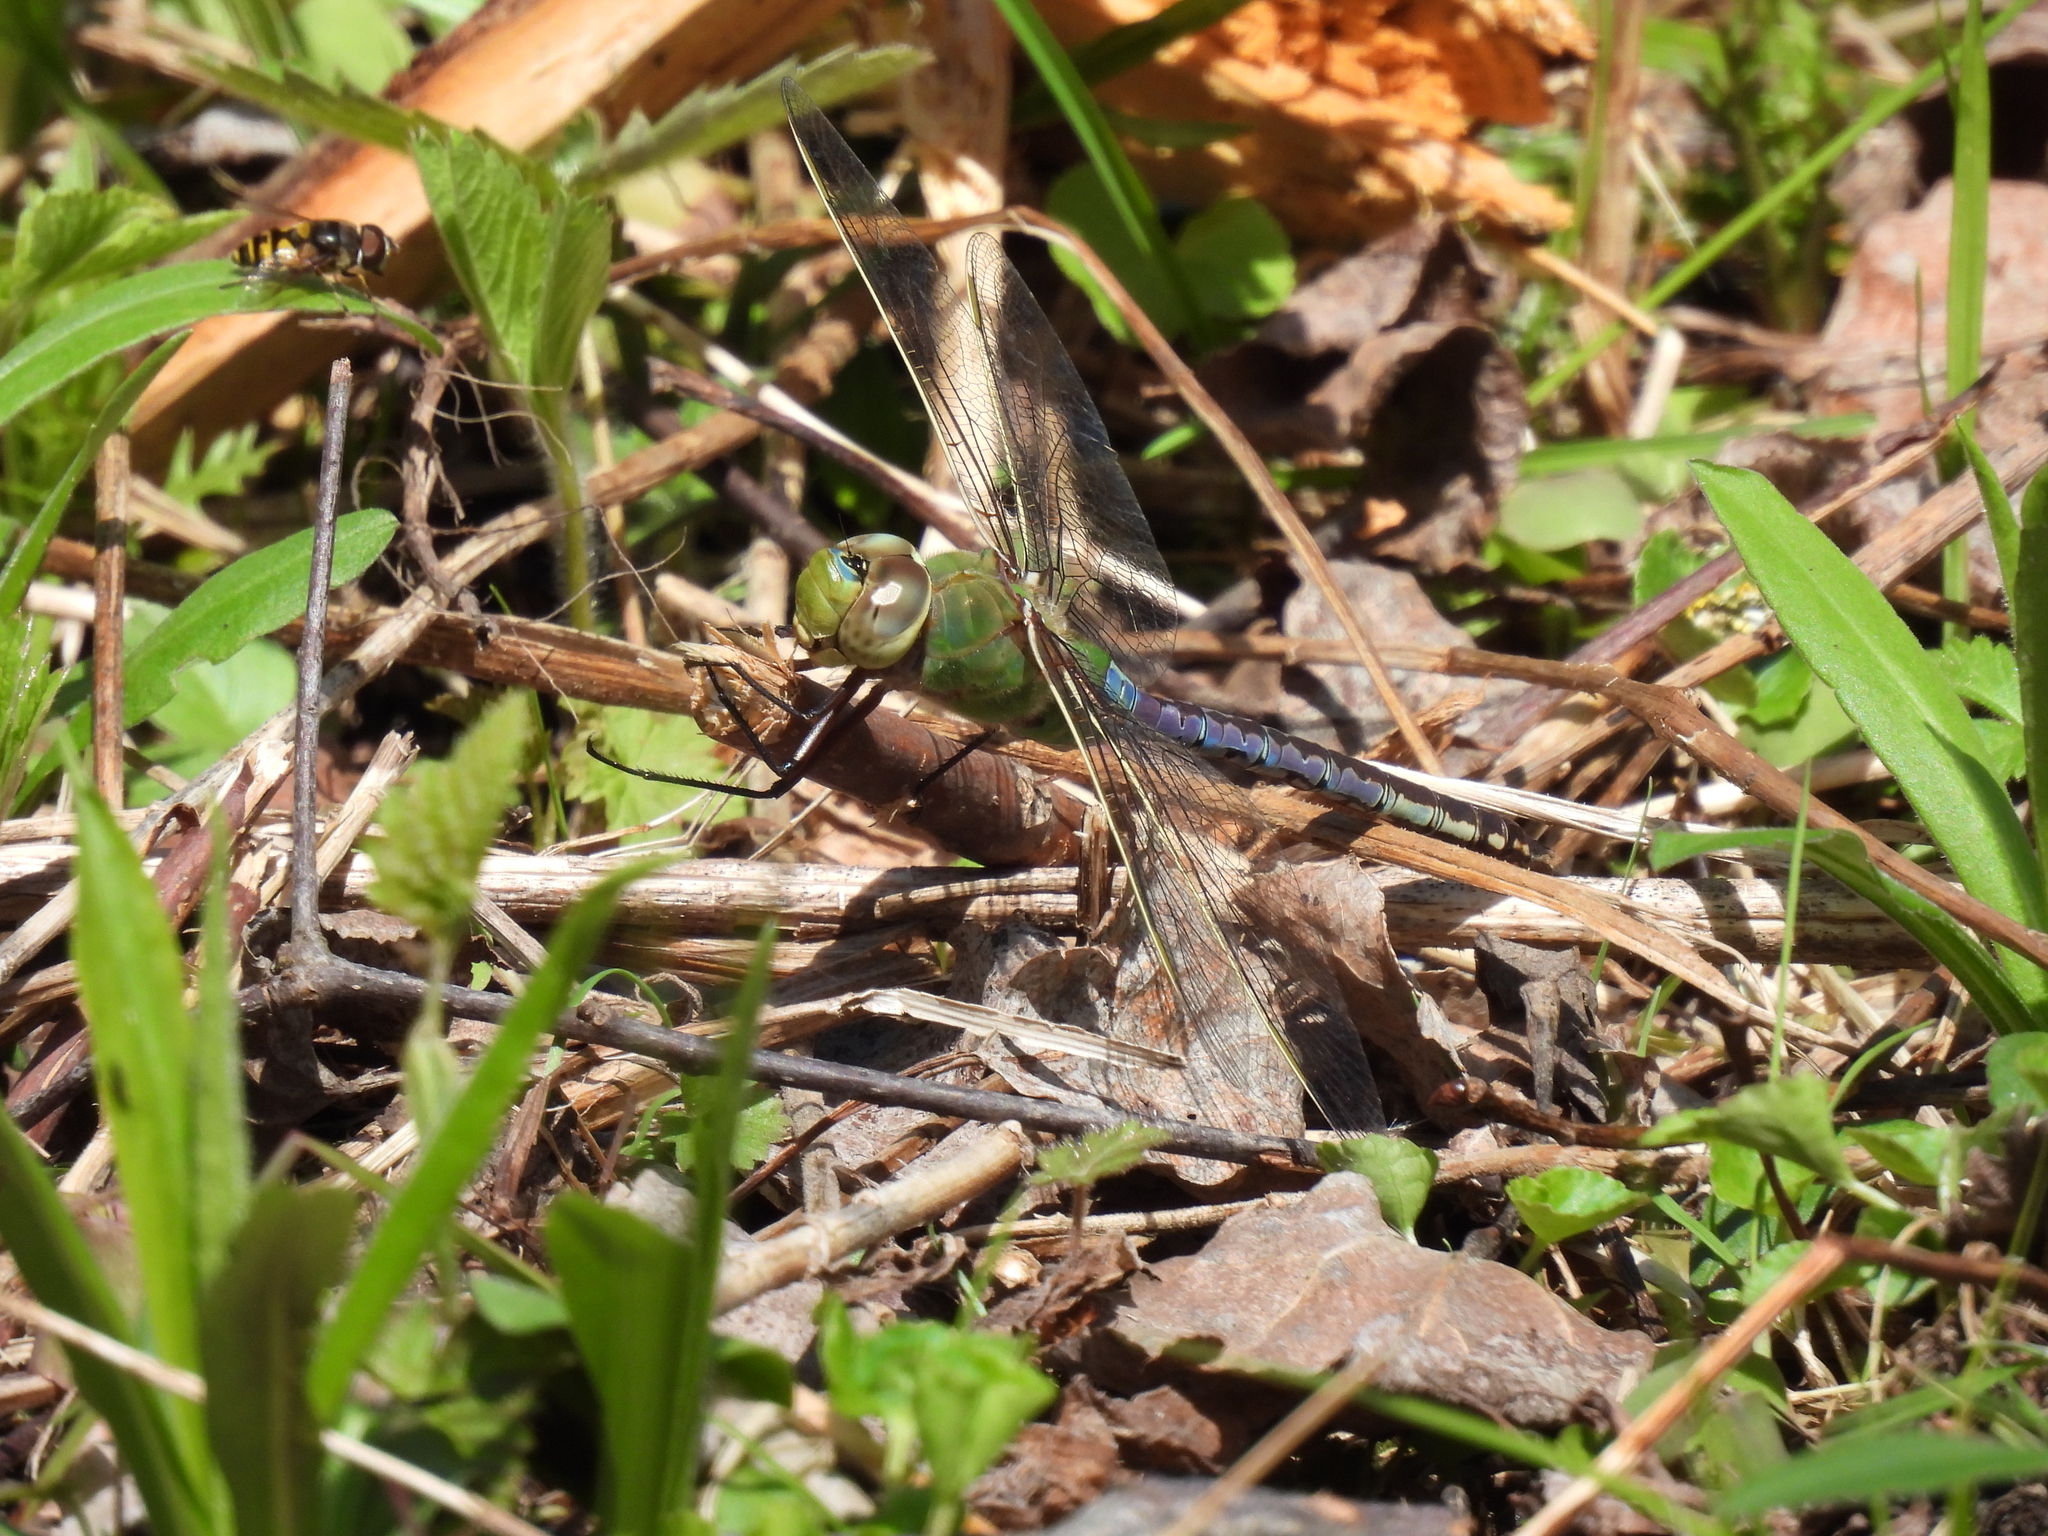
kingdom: Animalia
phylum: Arthropoda
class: Insecta
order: Odonata
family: Aeshnidae
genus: Anax
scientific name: Anax junius
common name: Common green darner
